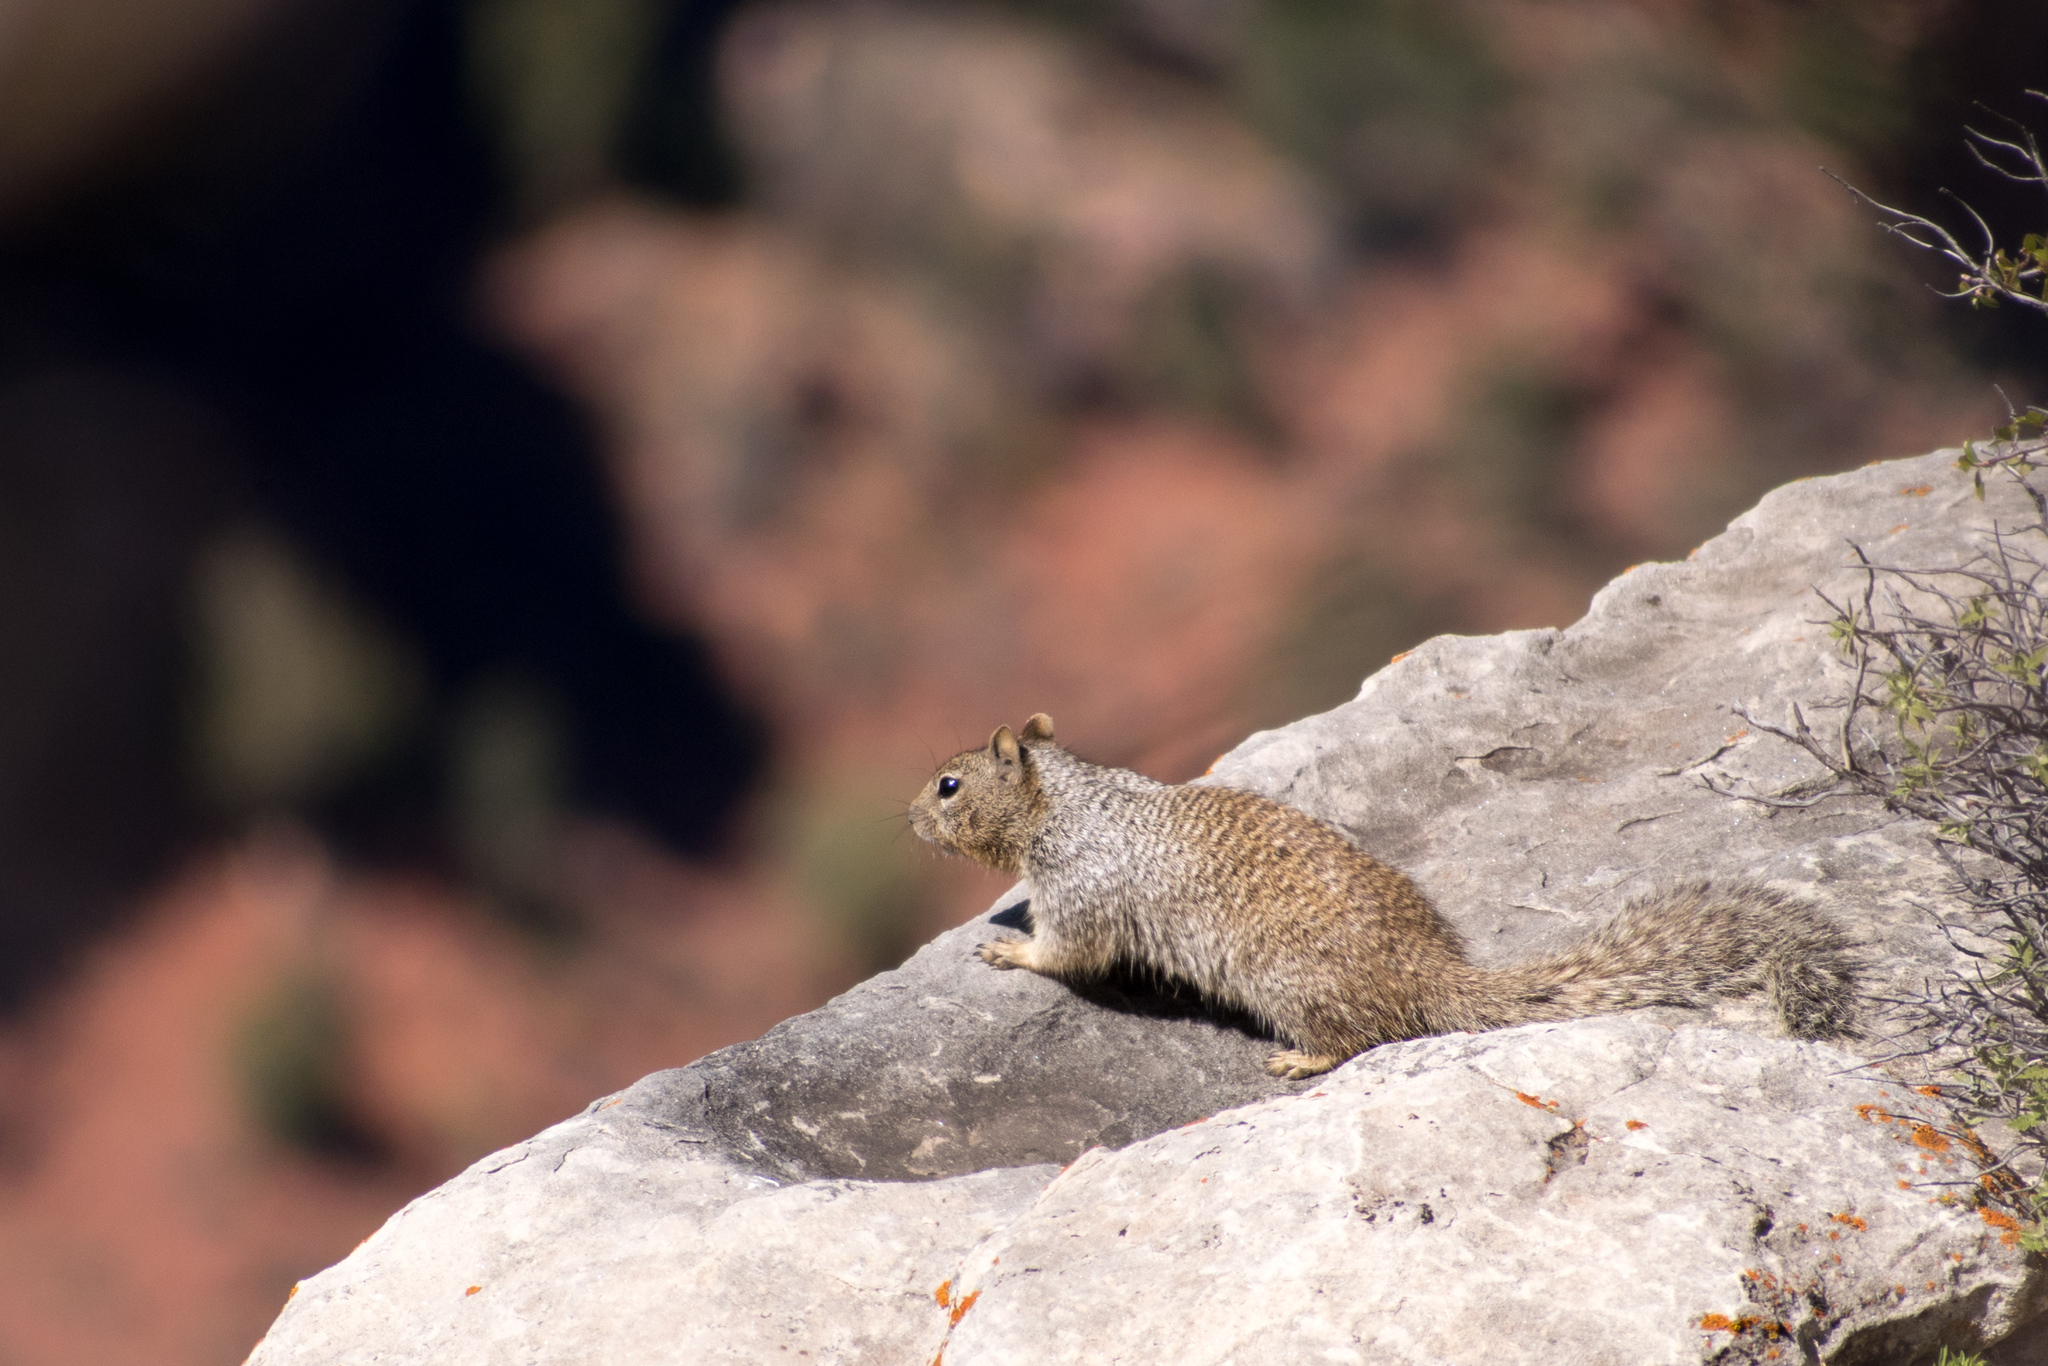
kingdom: Animalia
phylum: Chordata
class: Mammalia
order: Rodentia
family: Sciuridae
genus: Otospermophilus
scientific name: Otospermophilus variegatus
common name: Rock squirrel
